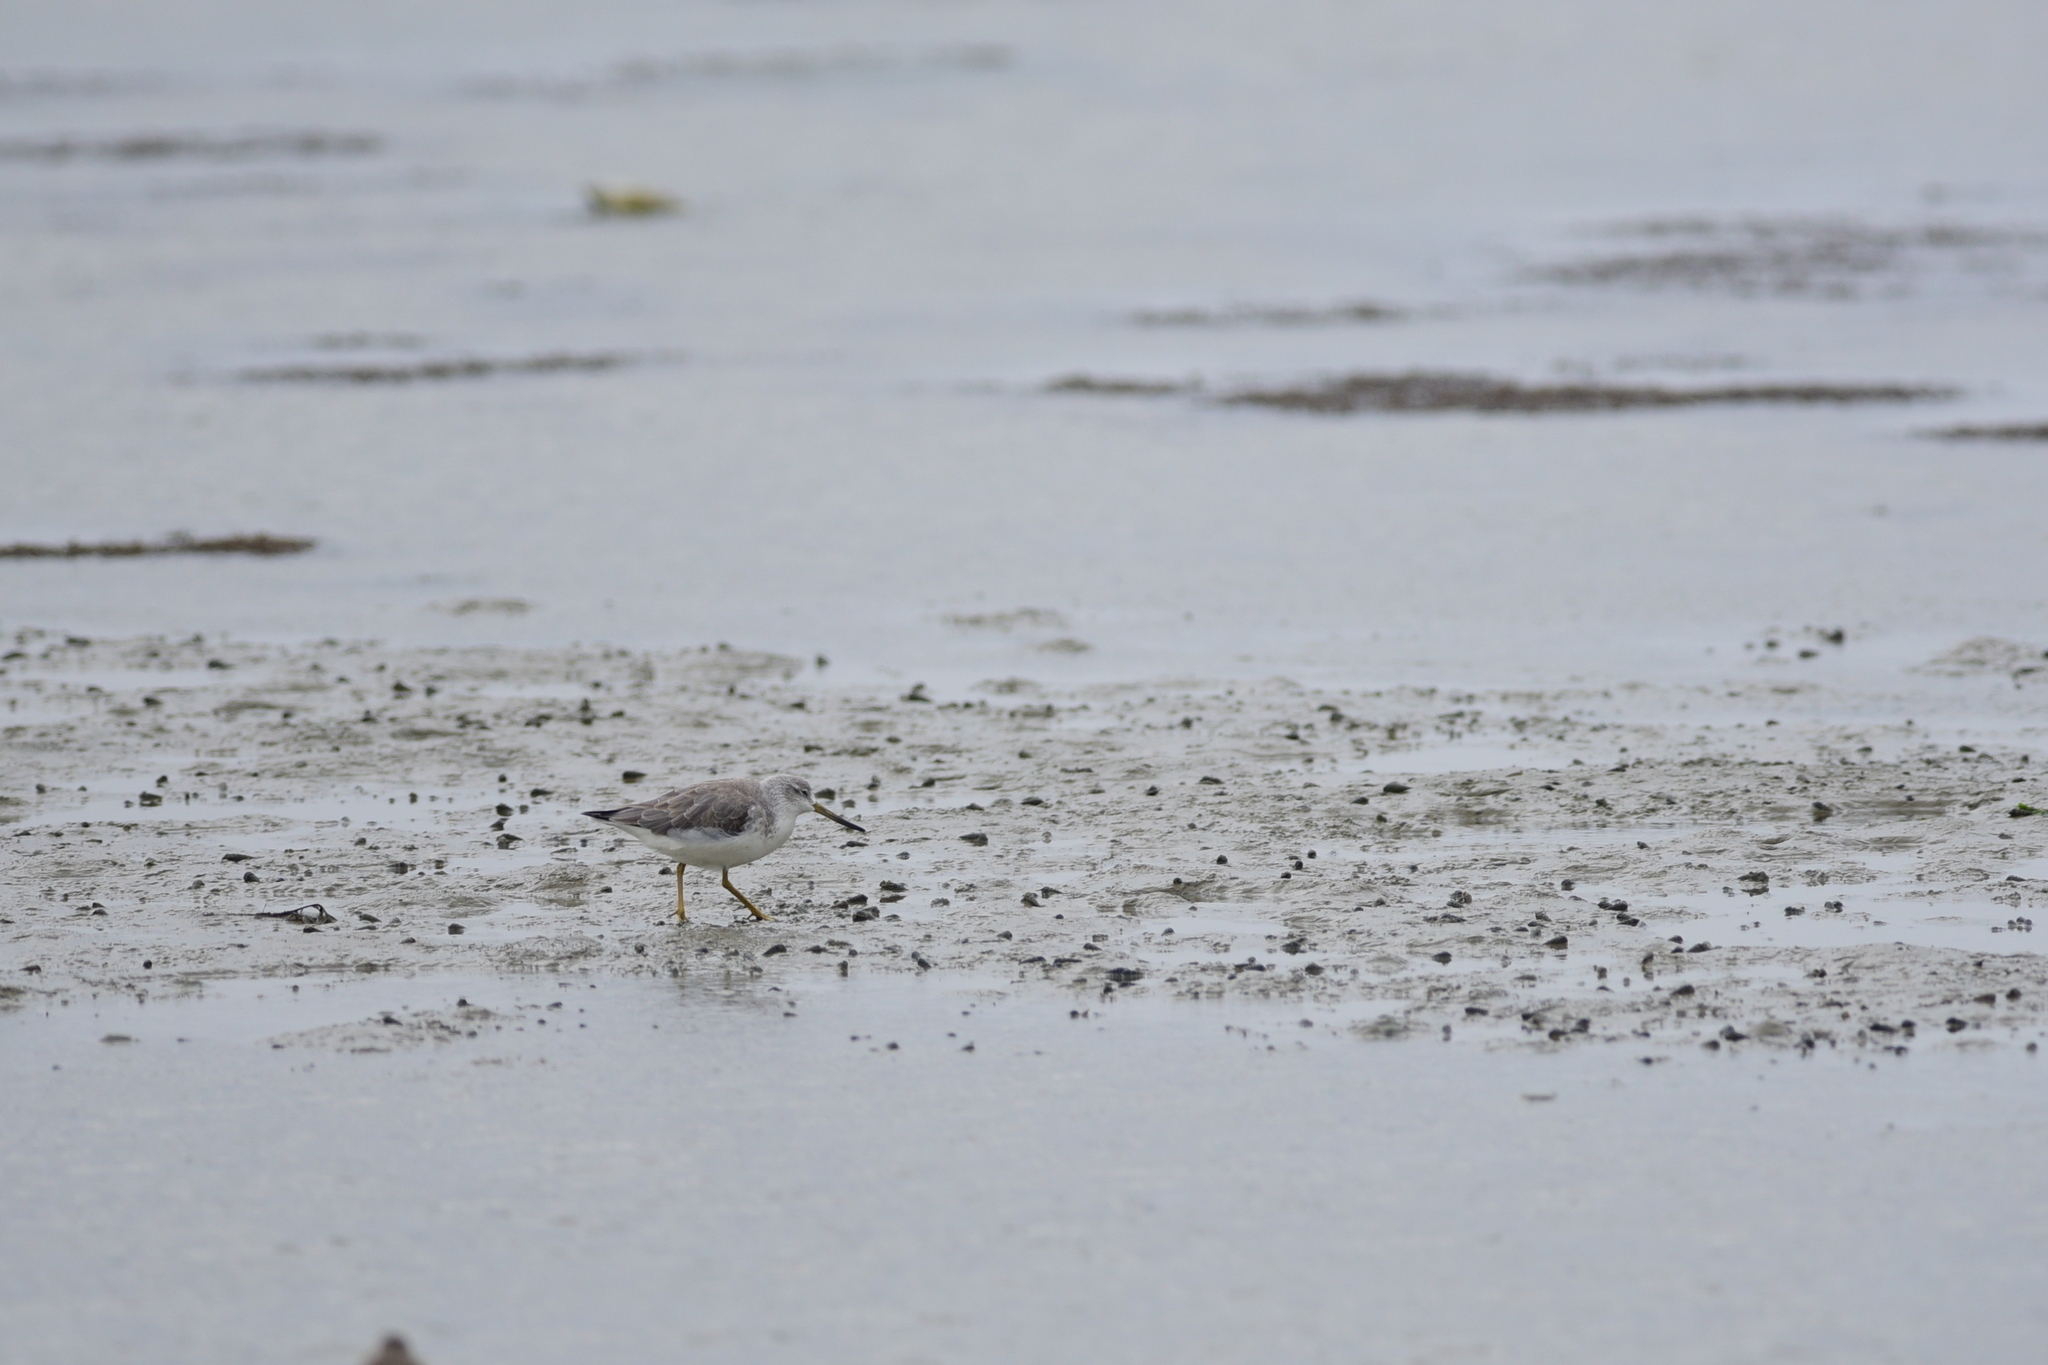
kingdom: Animalia
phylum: Chordata
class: Aves
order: Charadriiformes
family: Scolopacidae
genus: Tringa
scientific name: Tringa guttifer
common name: Nordmann's greenshank
